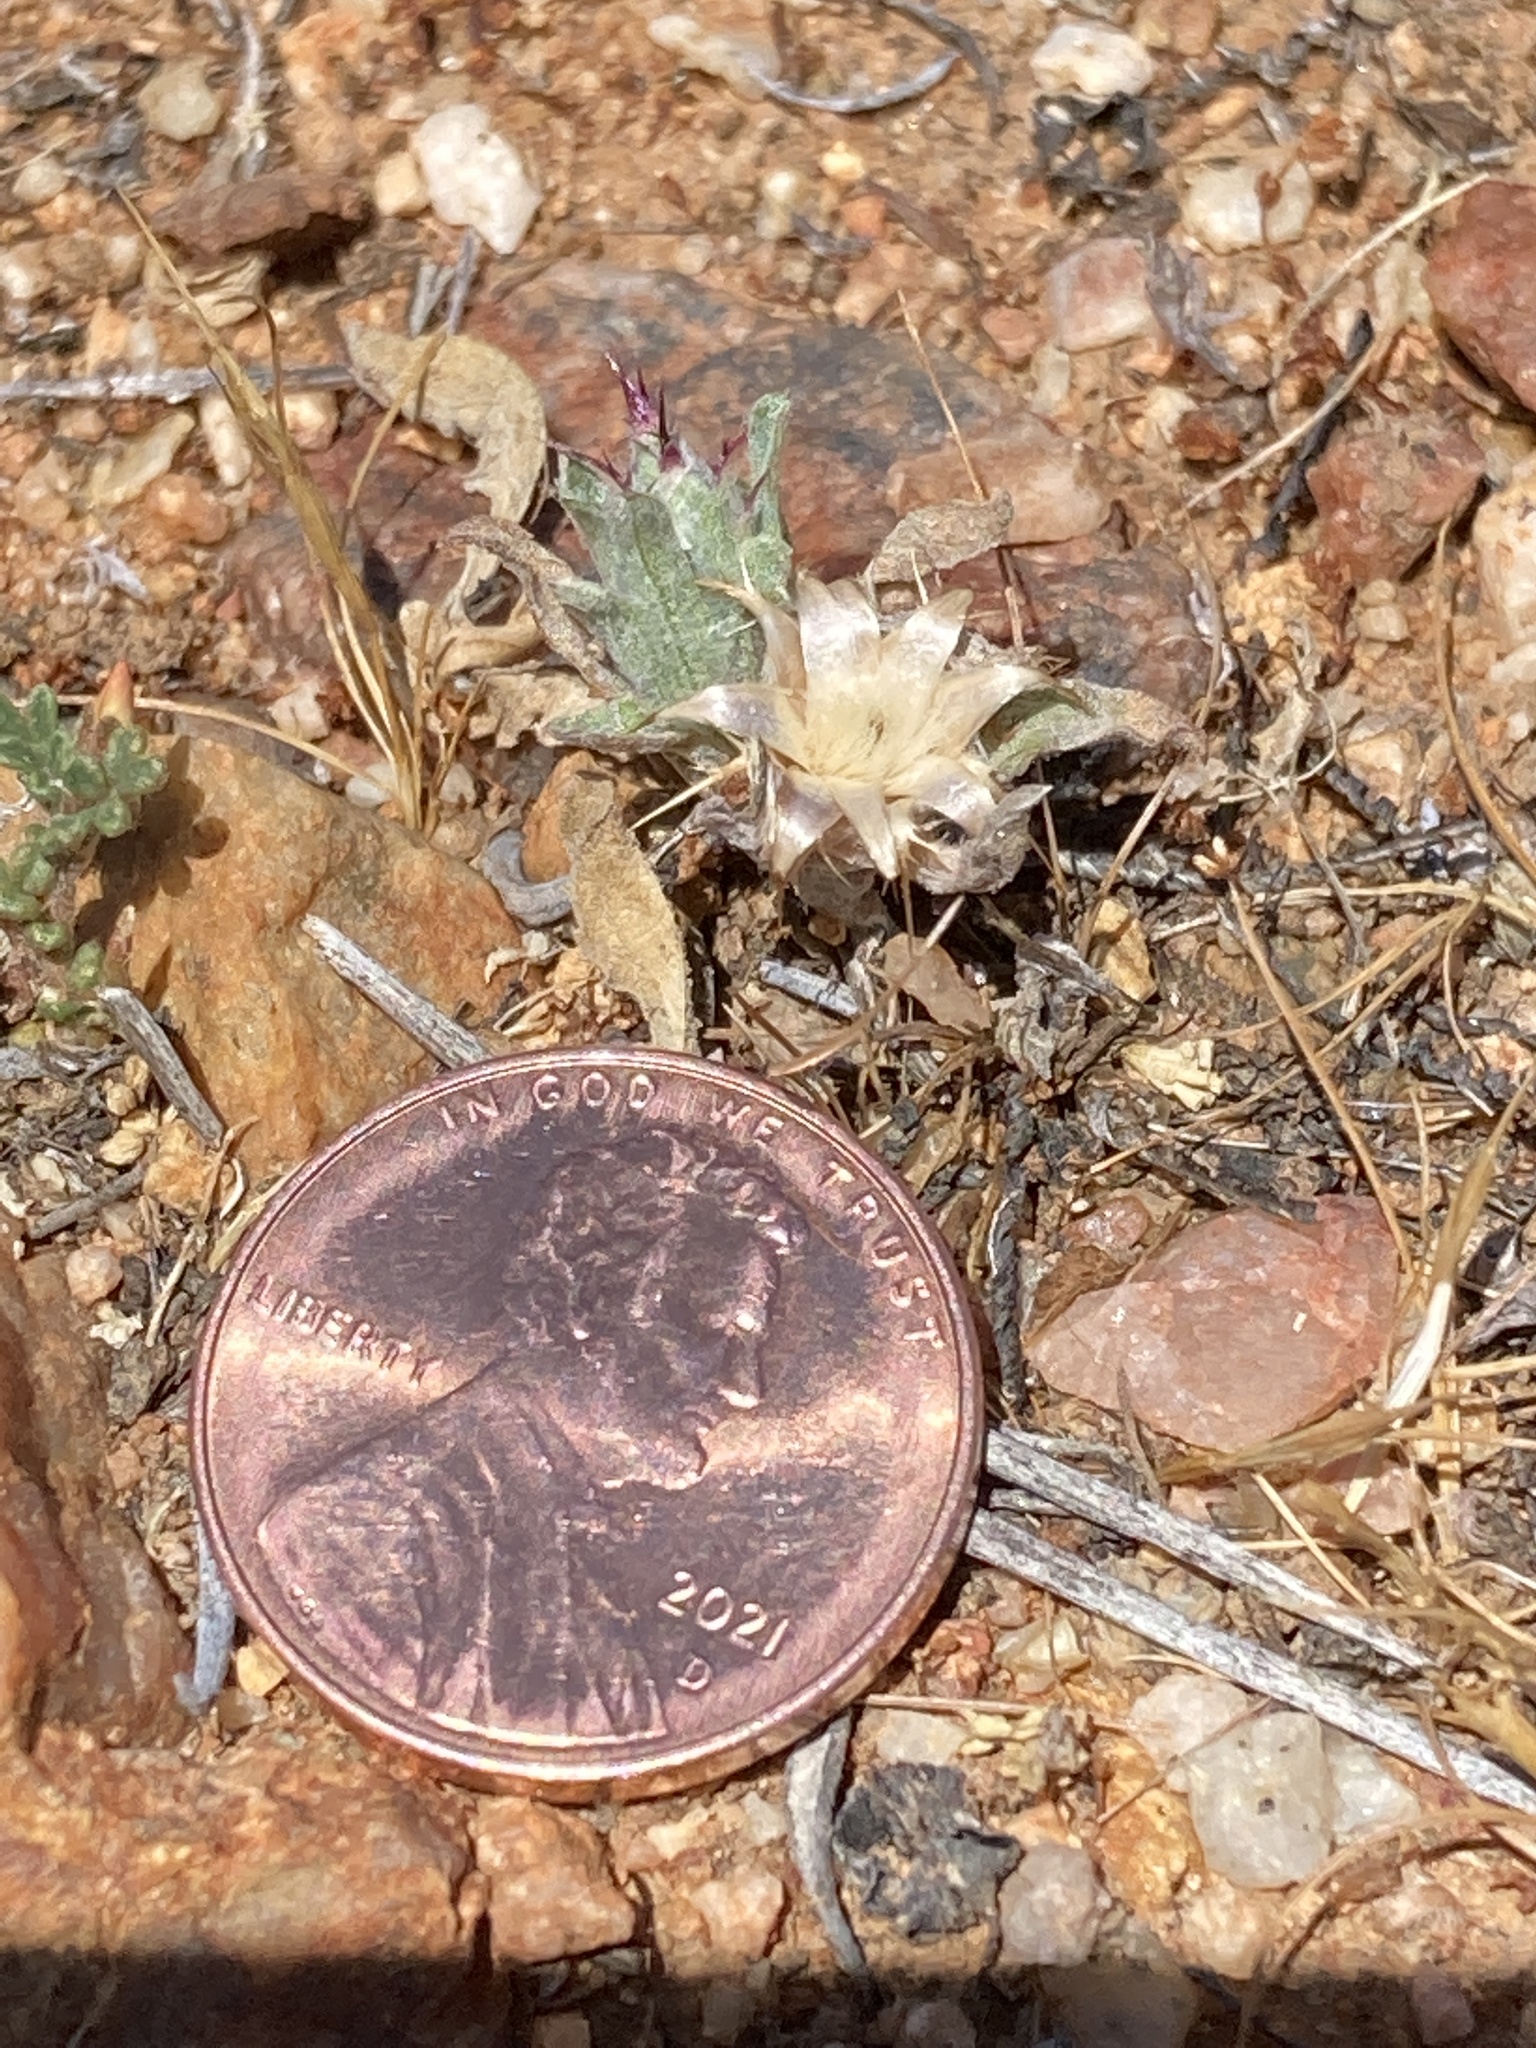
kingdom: Plantae
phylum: Tracheophyta
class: Magnoliopsida
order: Asterales
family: Asteraceae
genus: Centaurea
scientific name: Centaurea melitensis
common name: Maltese star-thistle
